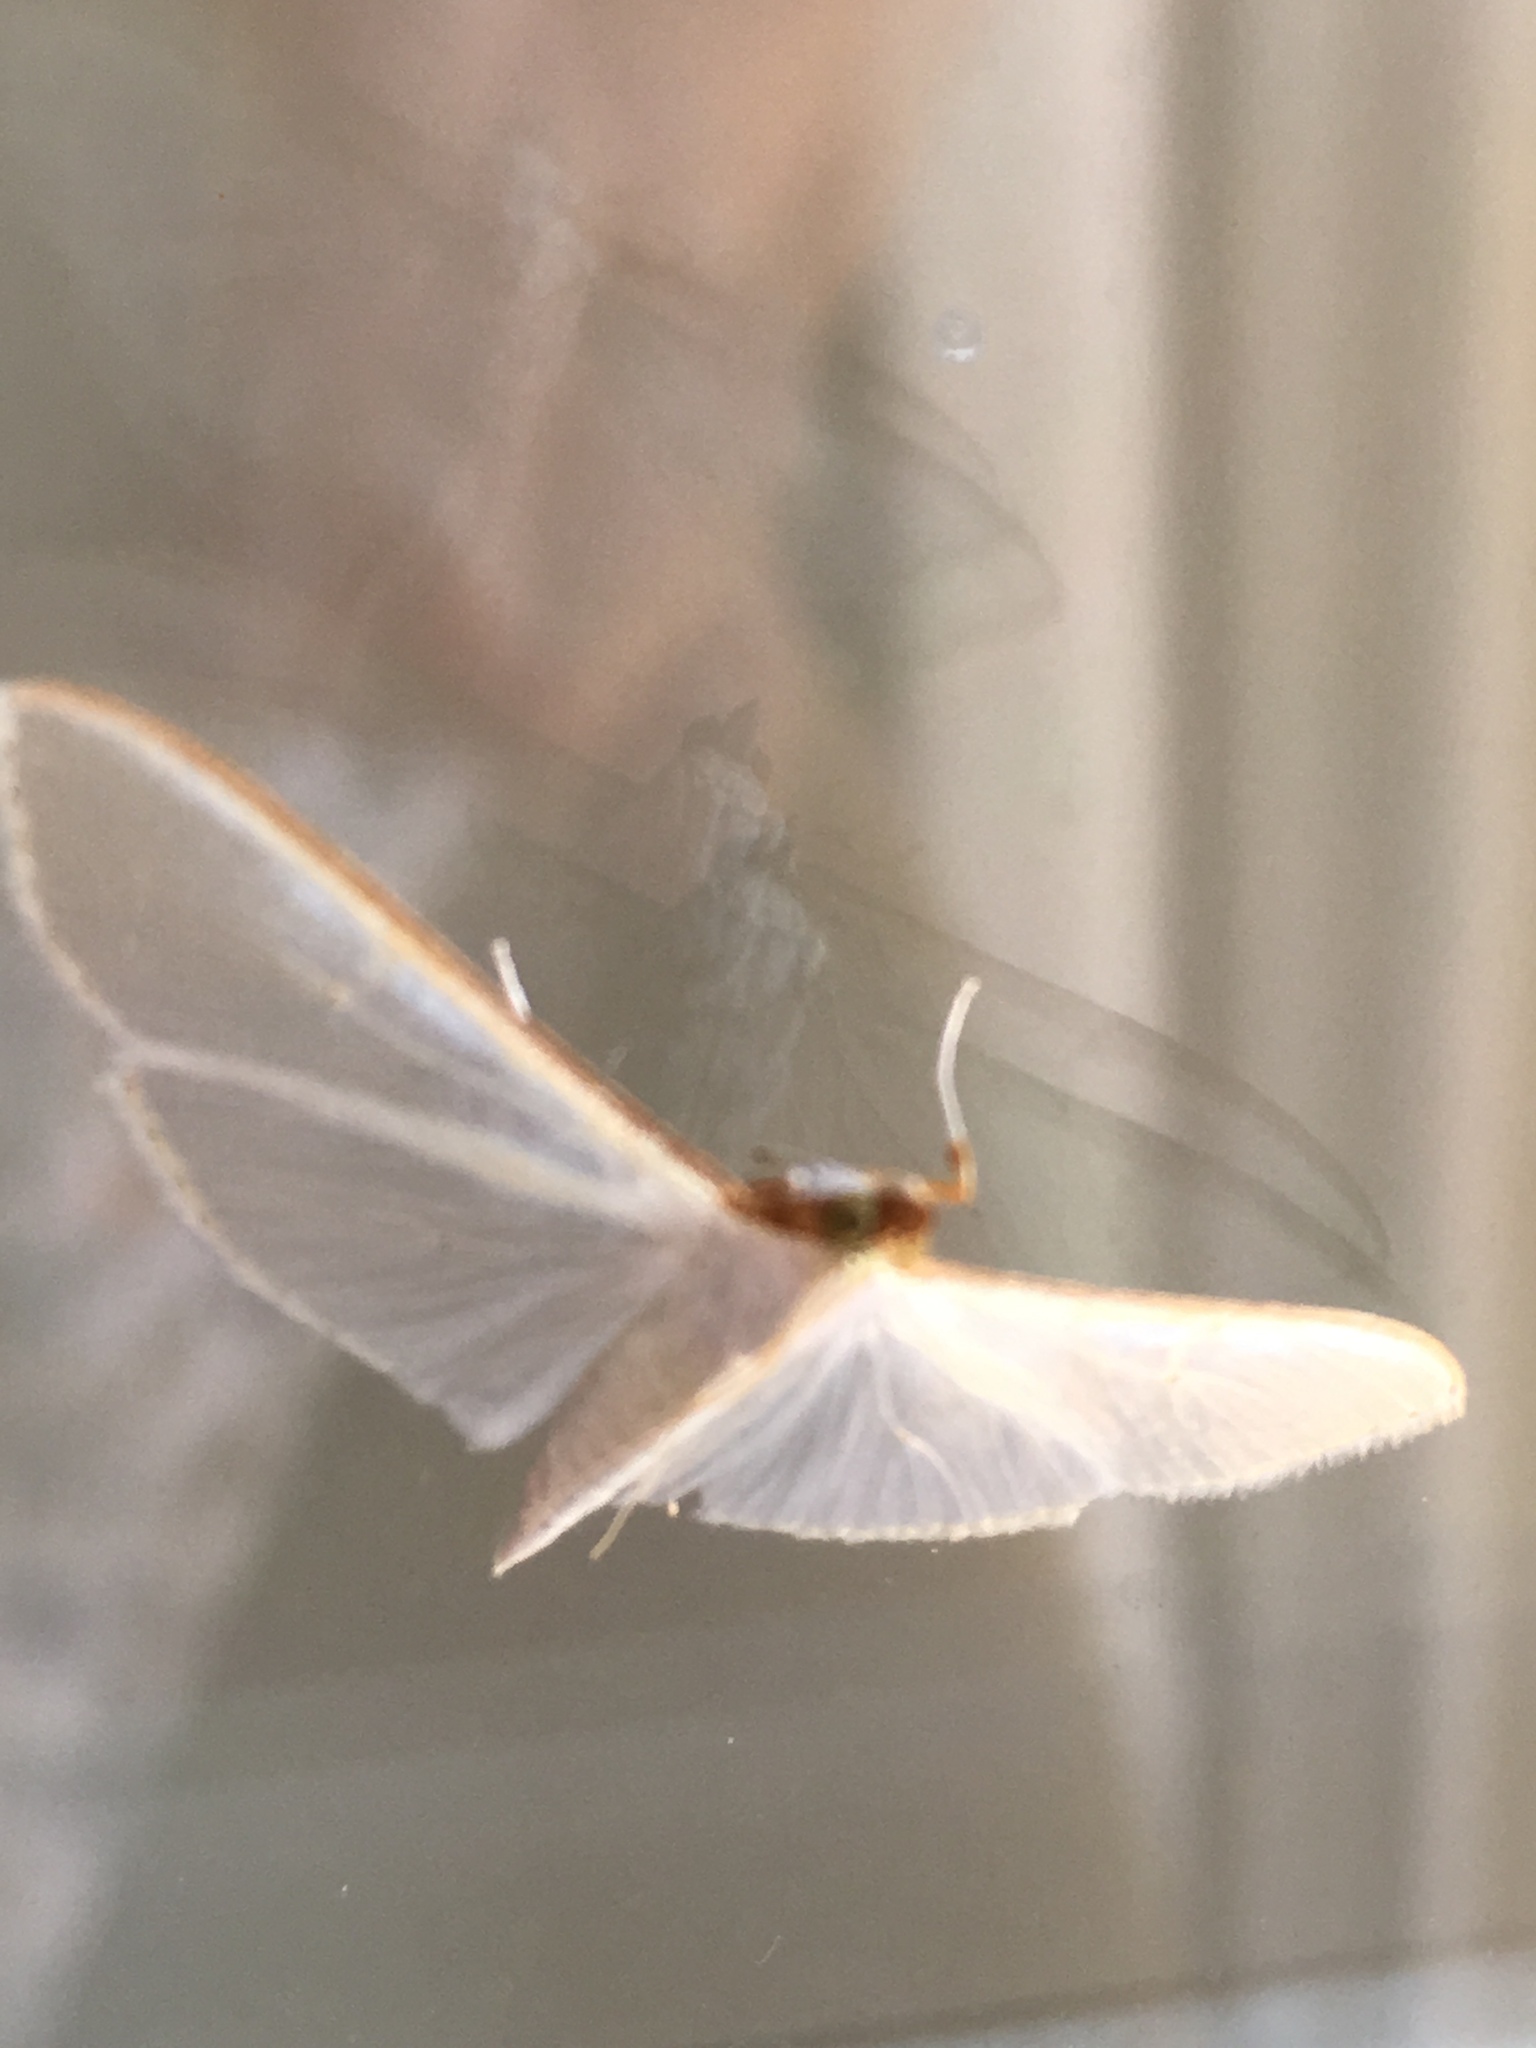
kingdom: Animalia
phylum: Arthropoda
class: Insecta
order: Lepidoptera
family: Crambidae
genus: Palpita
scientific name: Palpita vitrealis
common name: Olive-tree pearl
